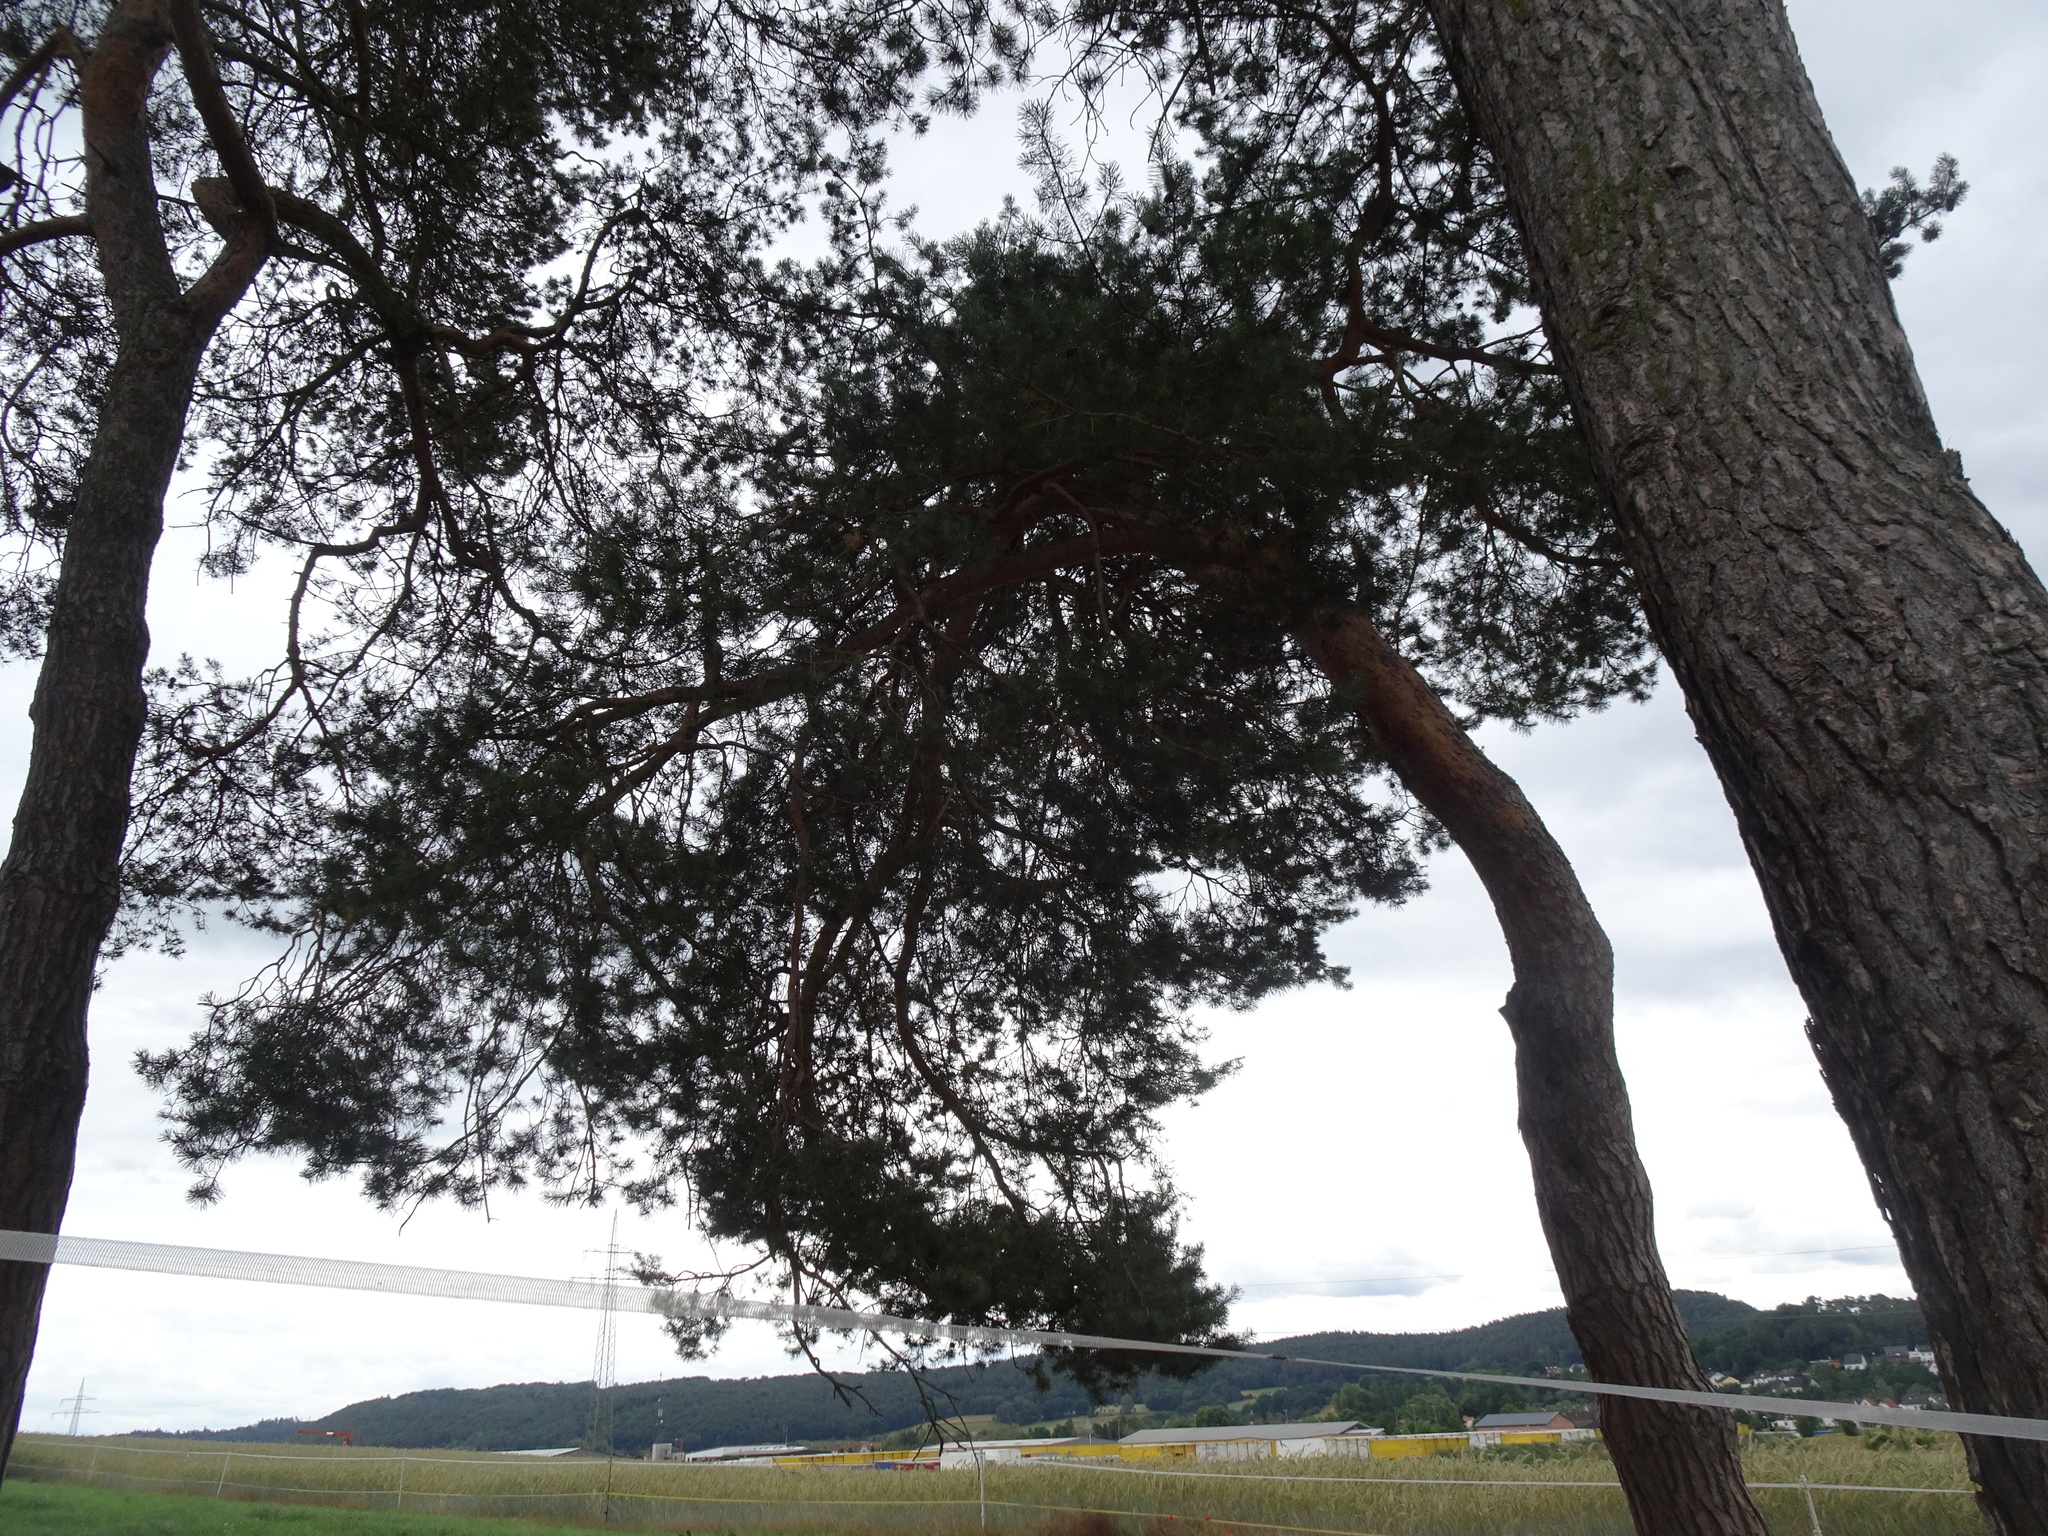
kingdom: Plantae
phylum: Tracheophyta
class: Pinopsida
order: Pinales
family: Pinaceae
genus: Pinus
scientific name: Pinus sylvestris
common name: Scots pine
